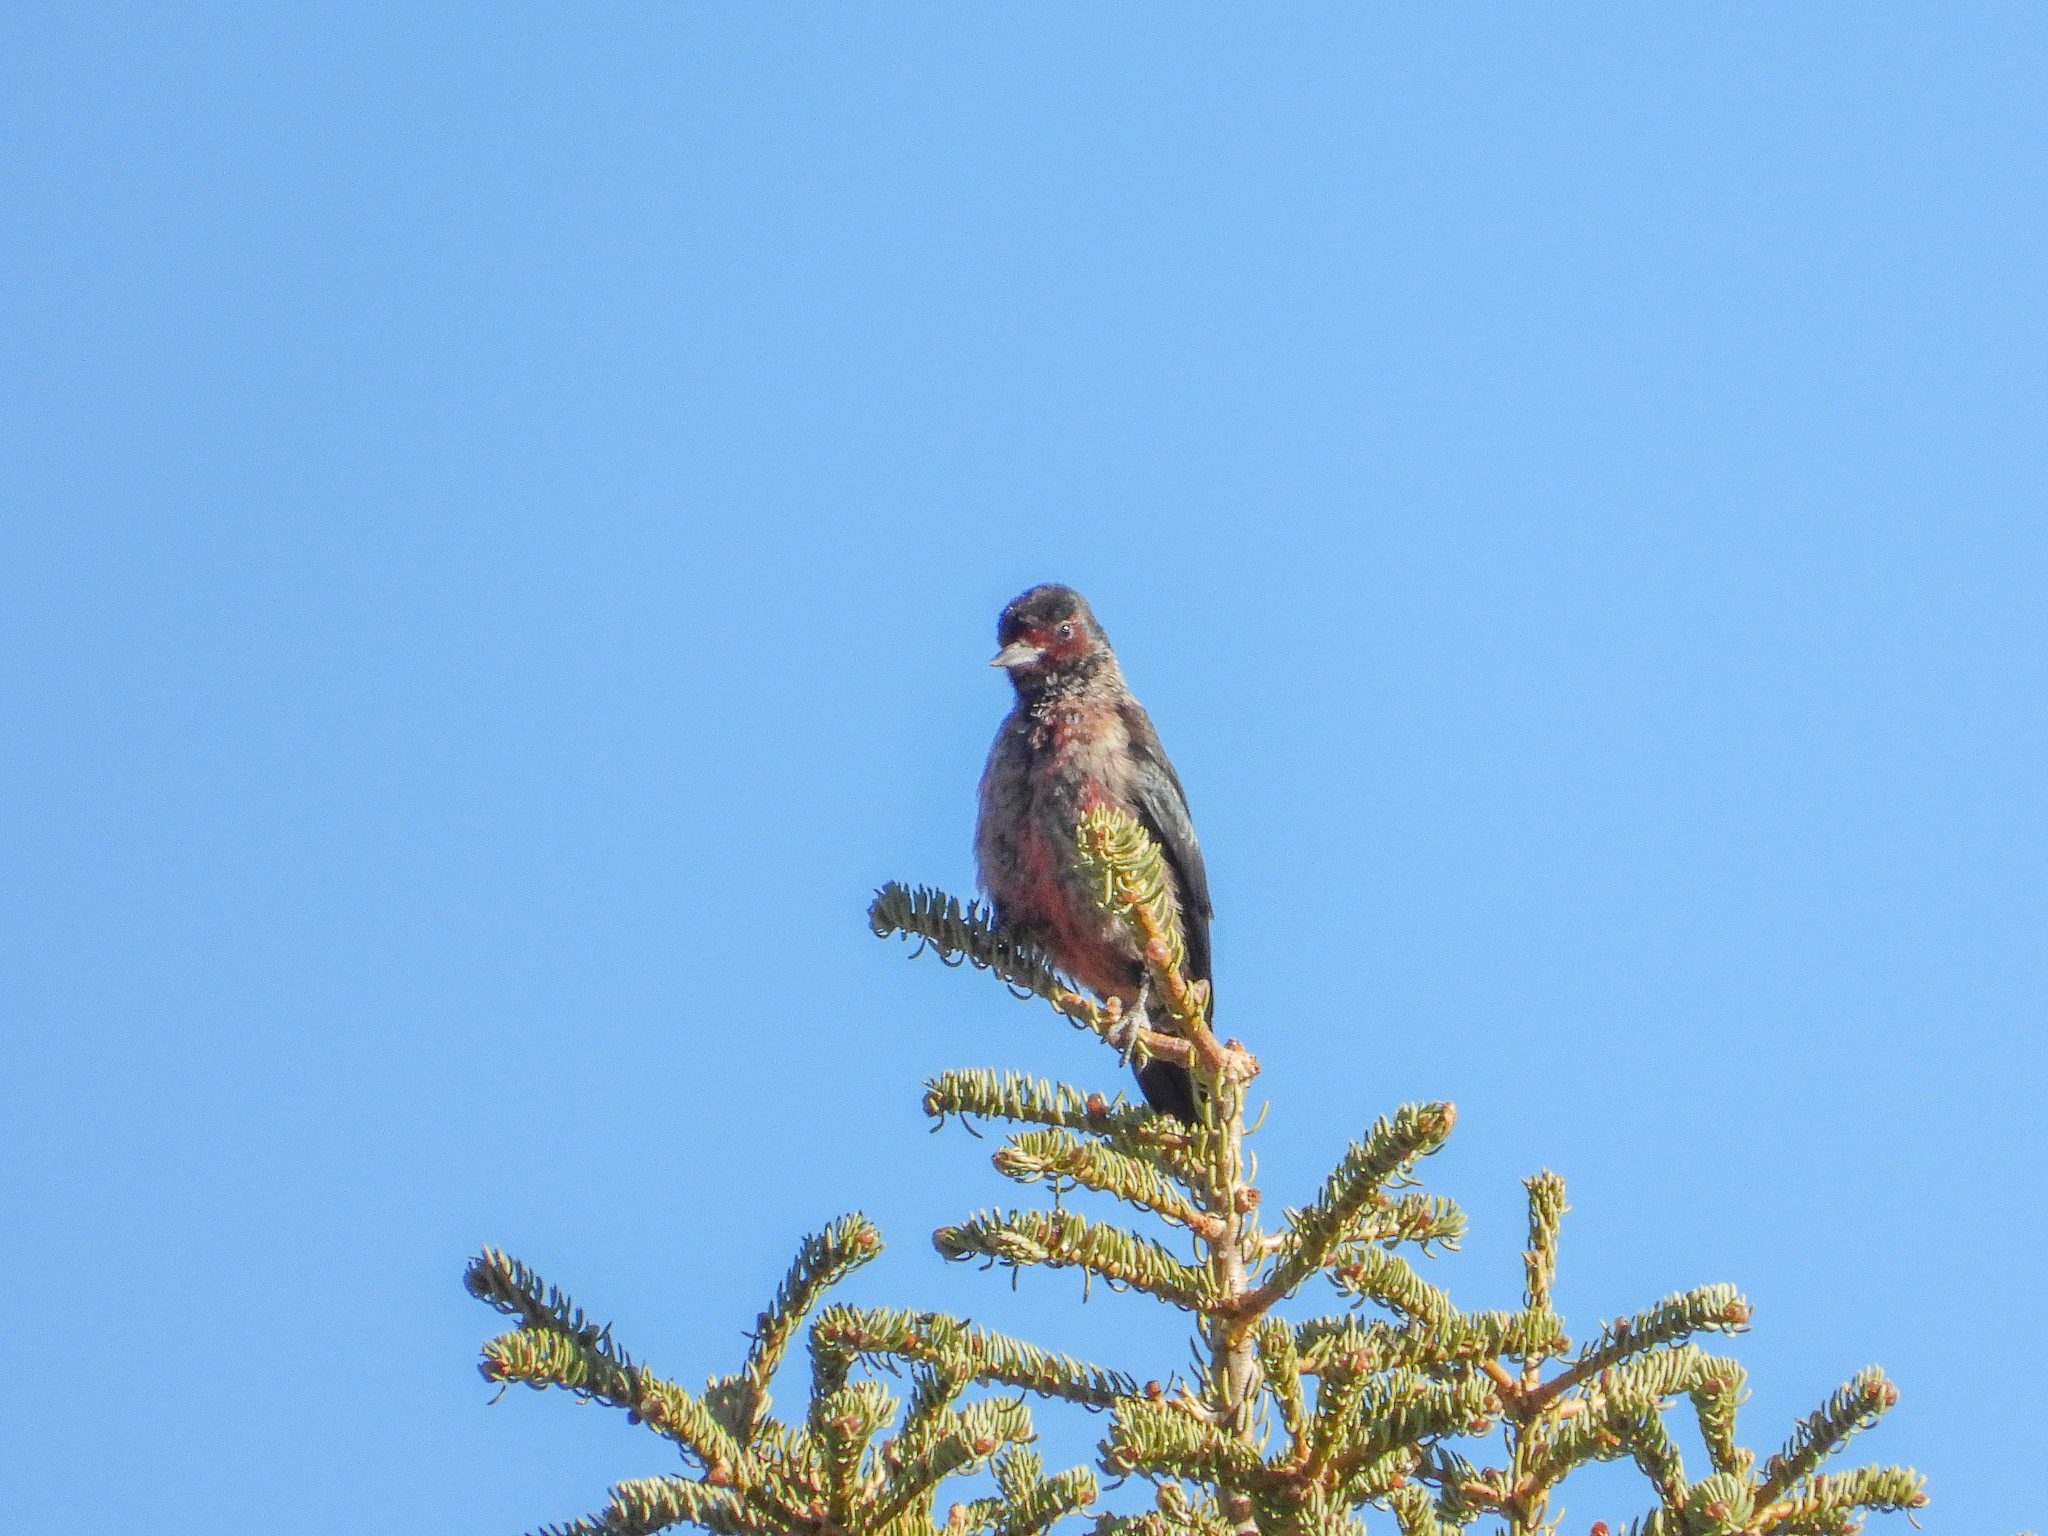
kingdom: Animalia
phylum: Chordata
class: Aves
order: Piciformes
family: Picidae
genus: Melanerpes
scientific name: Melanerpes lewis
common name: Lewis's woodpecker
